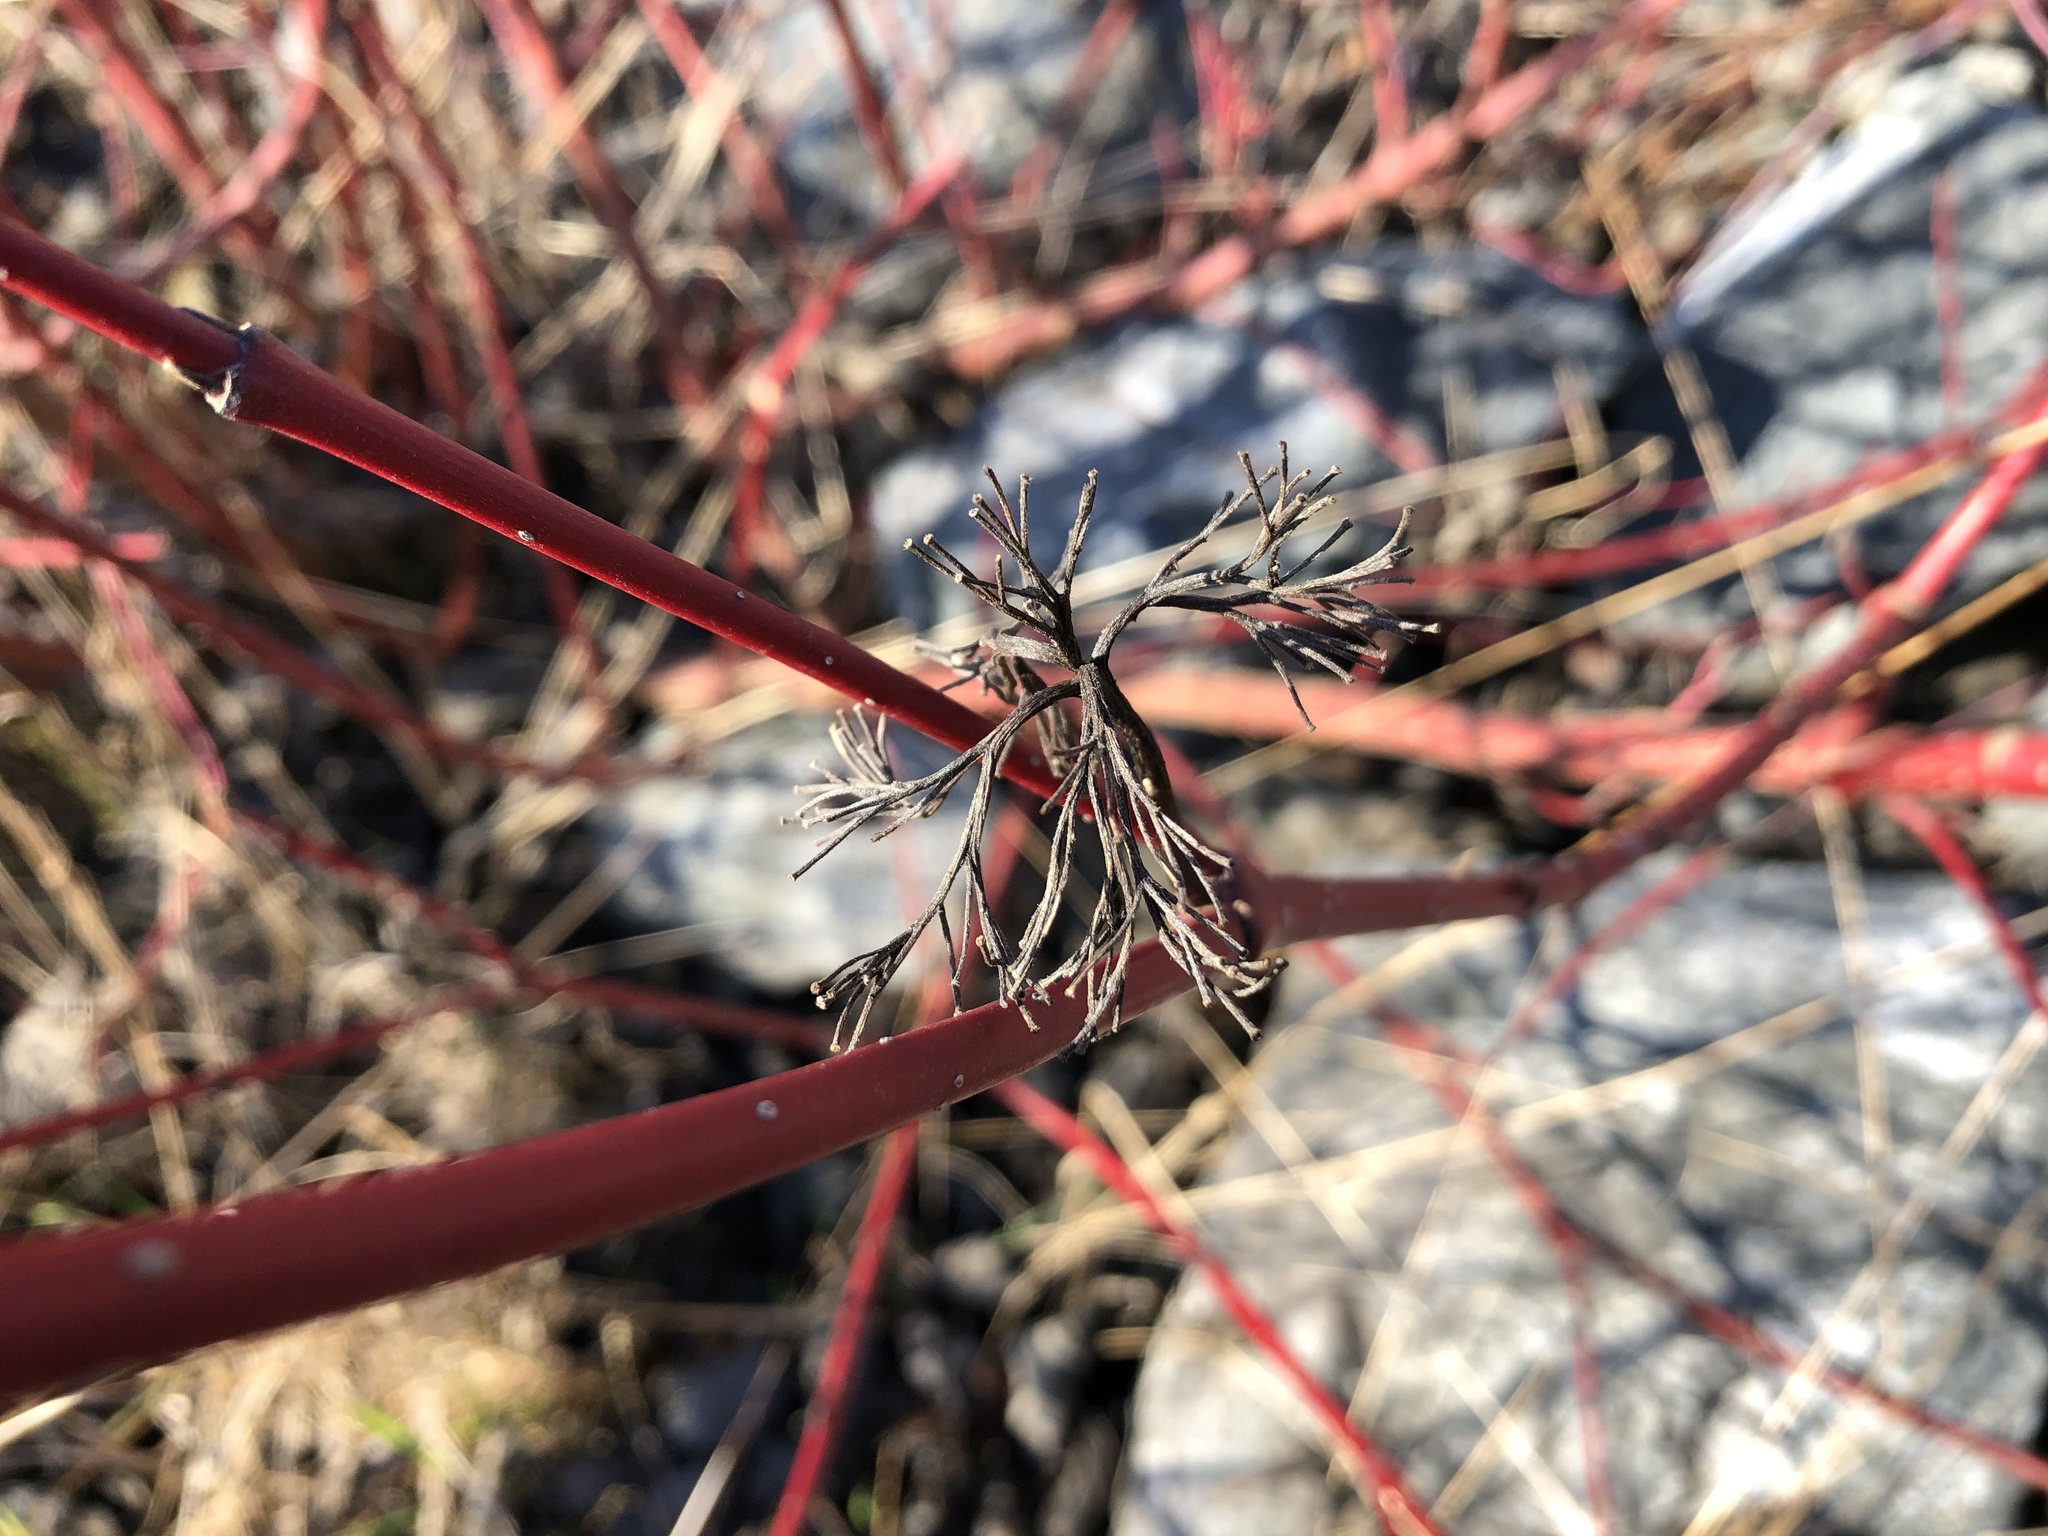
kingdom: Plantae
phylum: Tracheophyta
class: Magnoliopsida
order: Cornales
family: Cornaceae
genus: Cornus
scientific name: Cornus alba
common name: White dogwood
